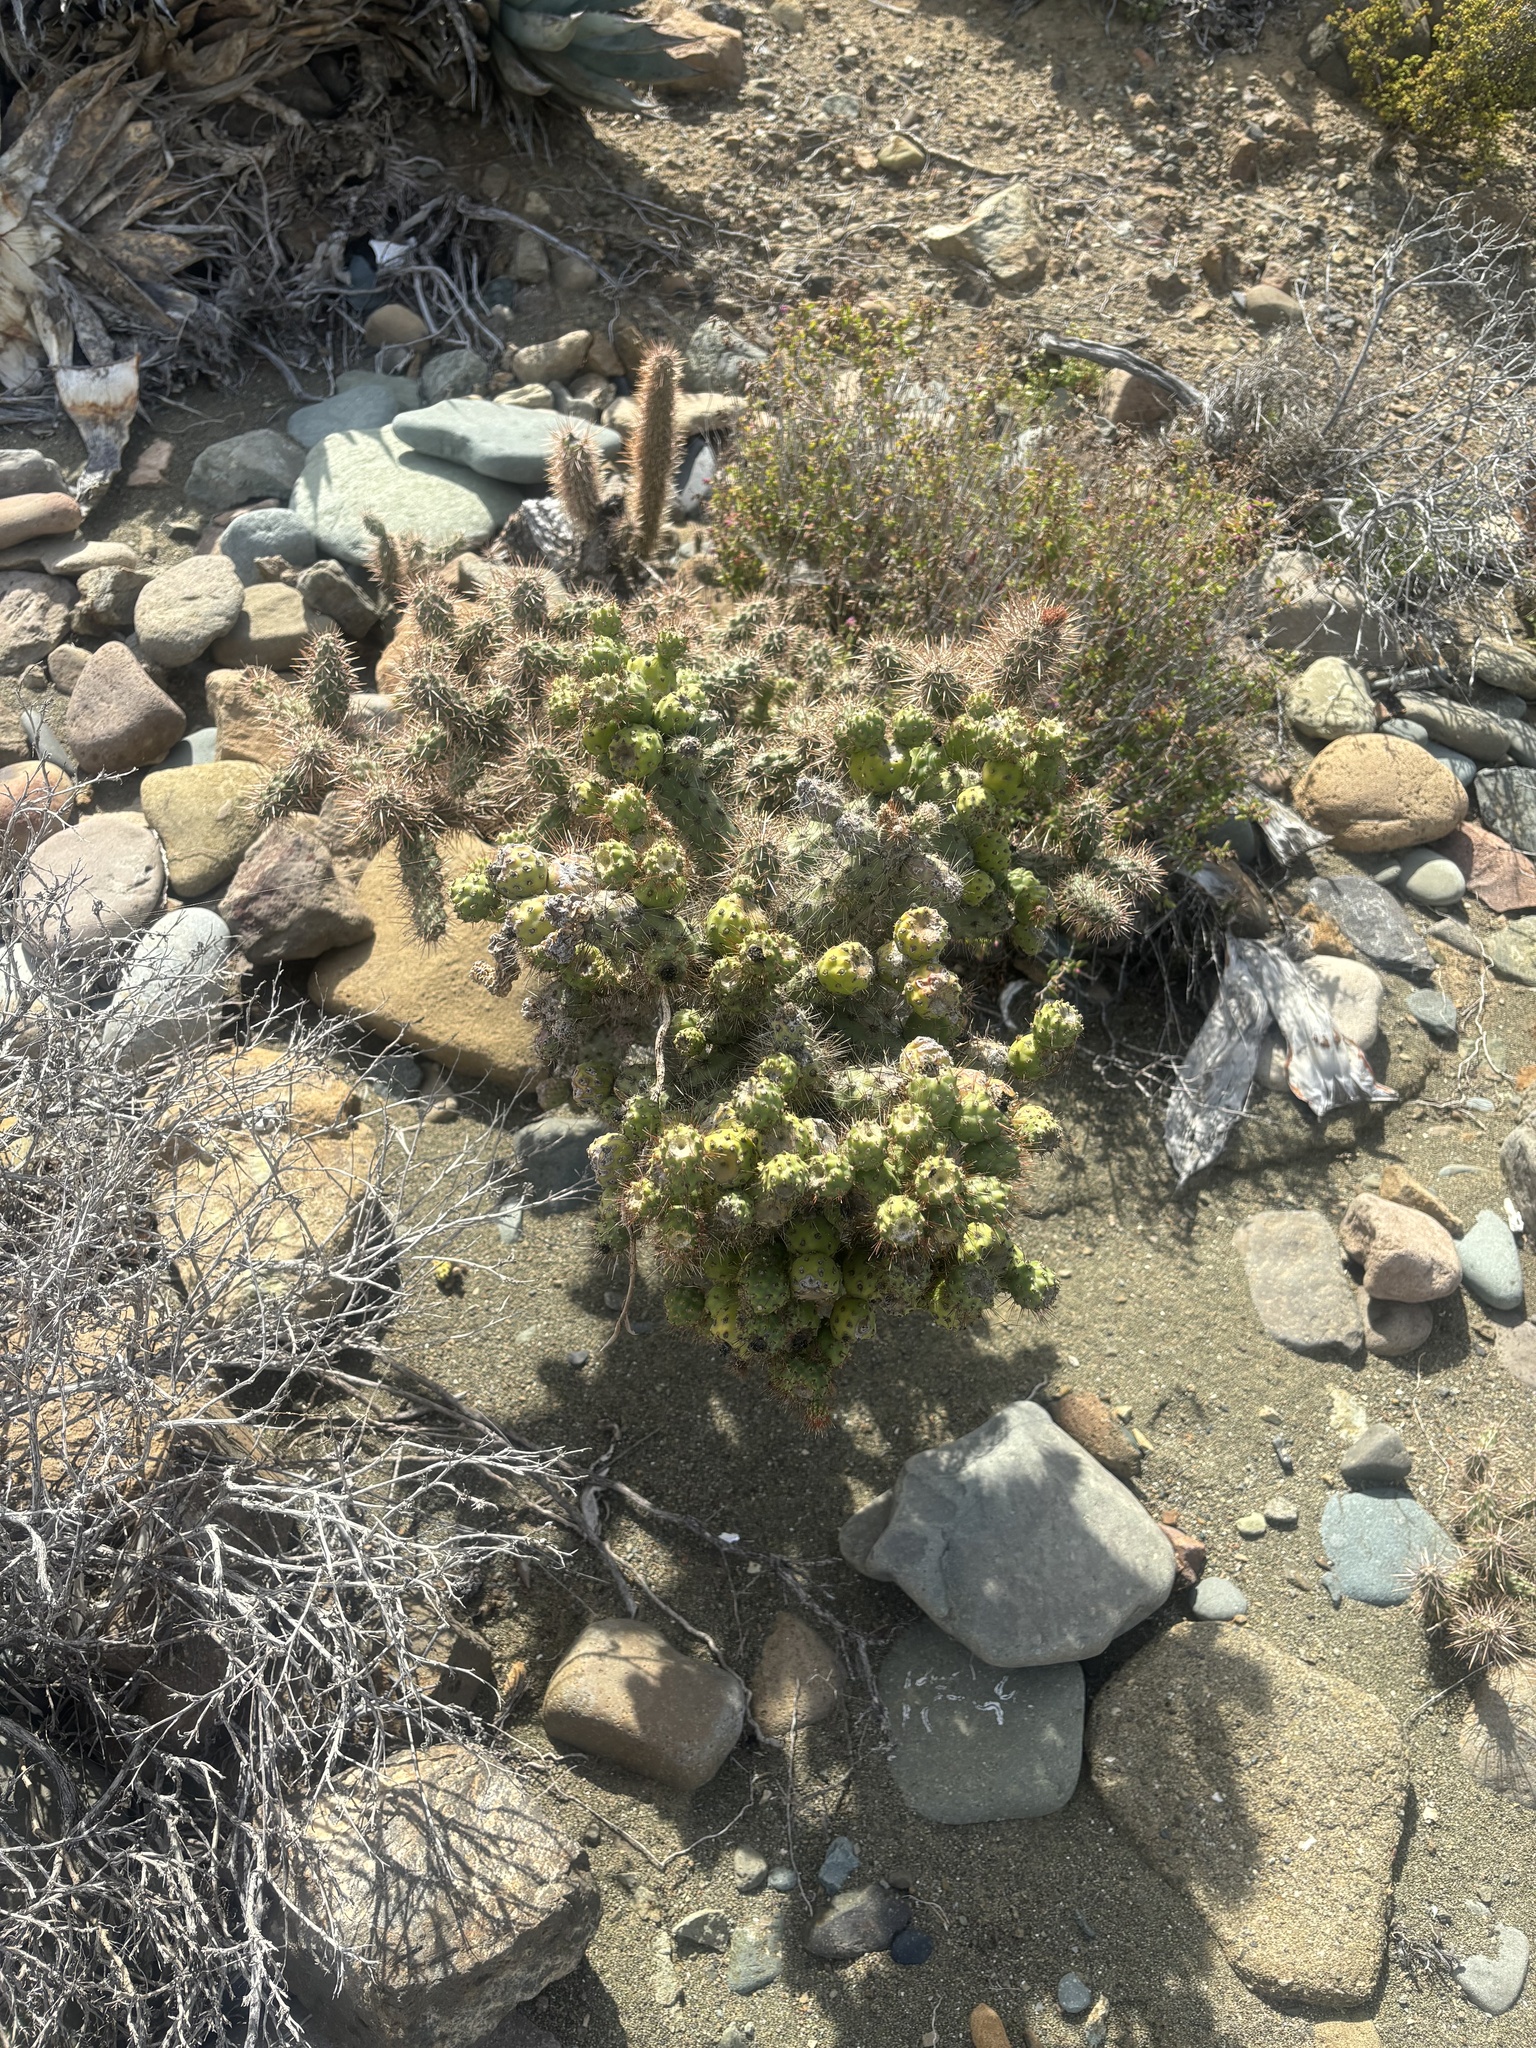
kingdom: Plantae
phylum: Tracheophyta
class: Magnoliopsida
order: Caryophyllales
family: Cactaceae
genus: Cylindropuntia
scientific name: Cylindropuntia prolifera
